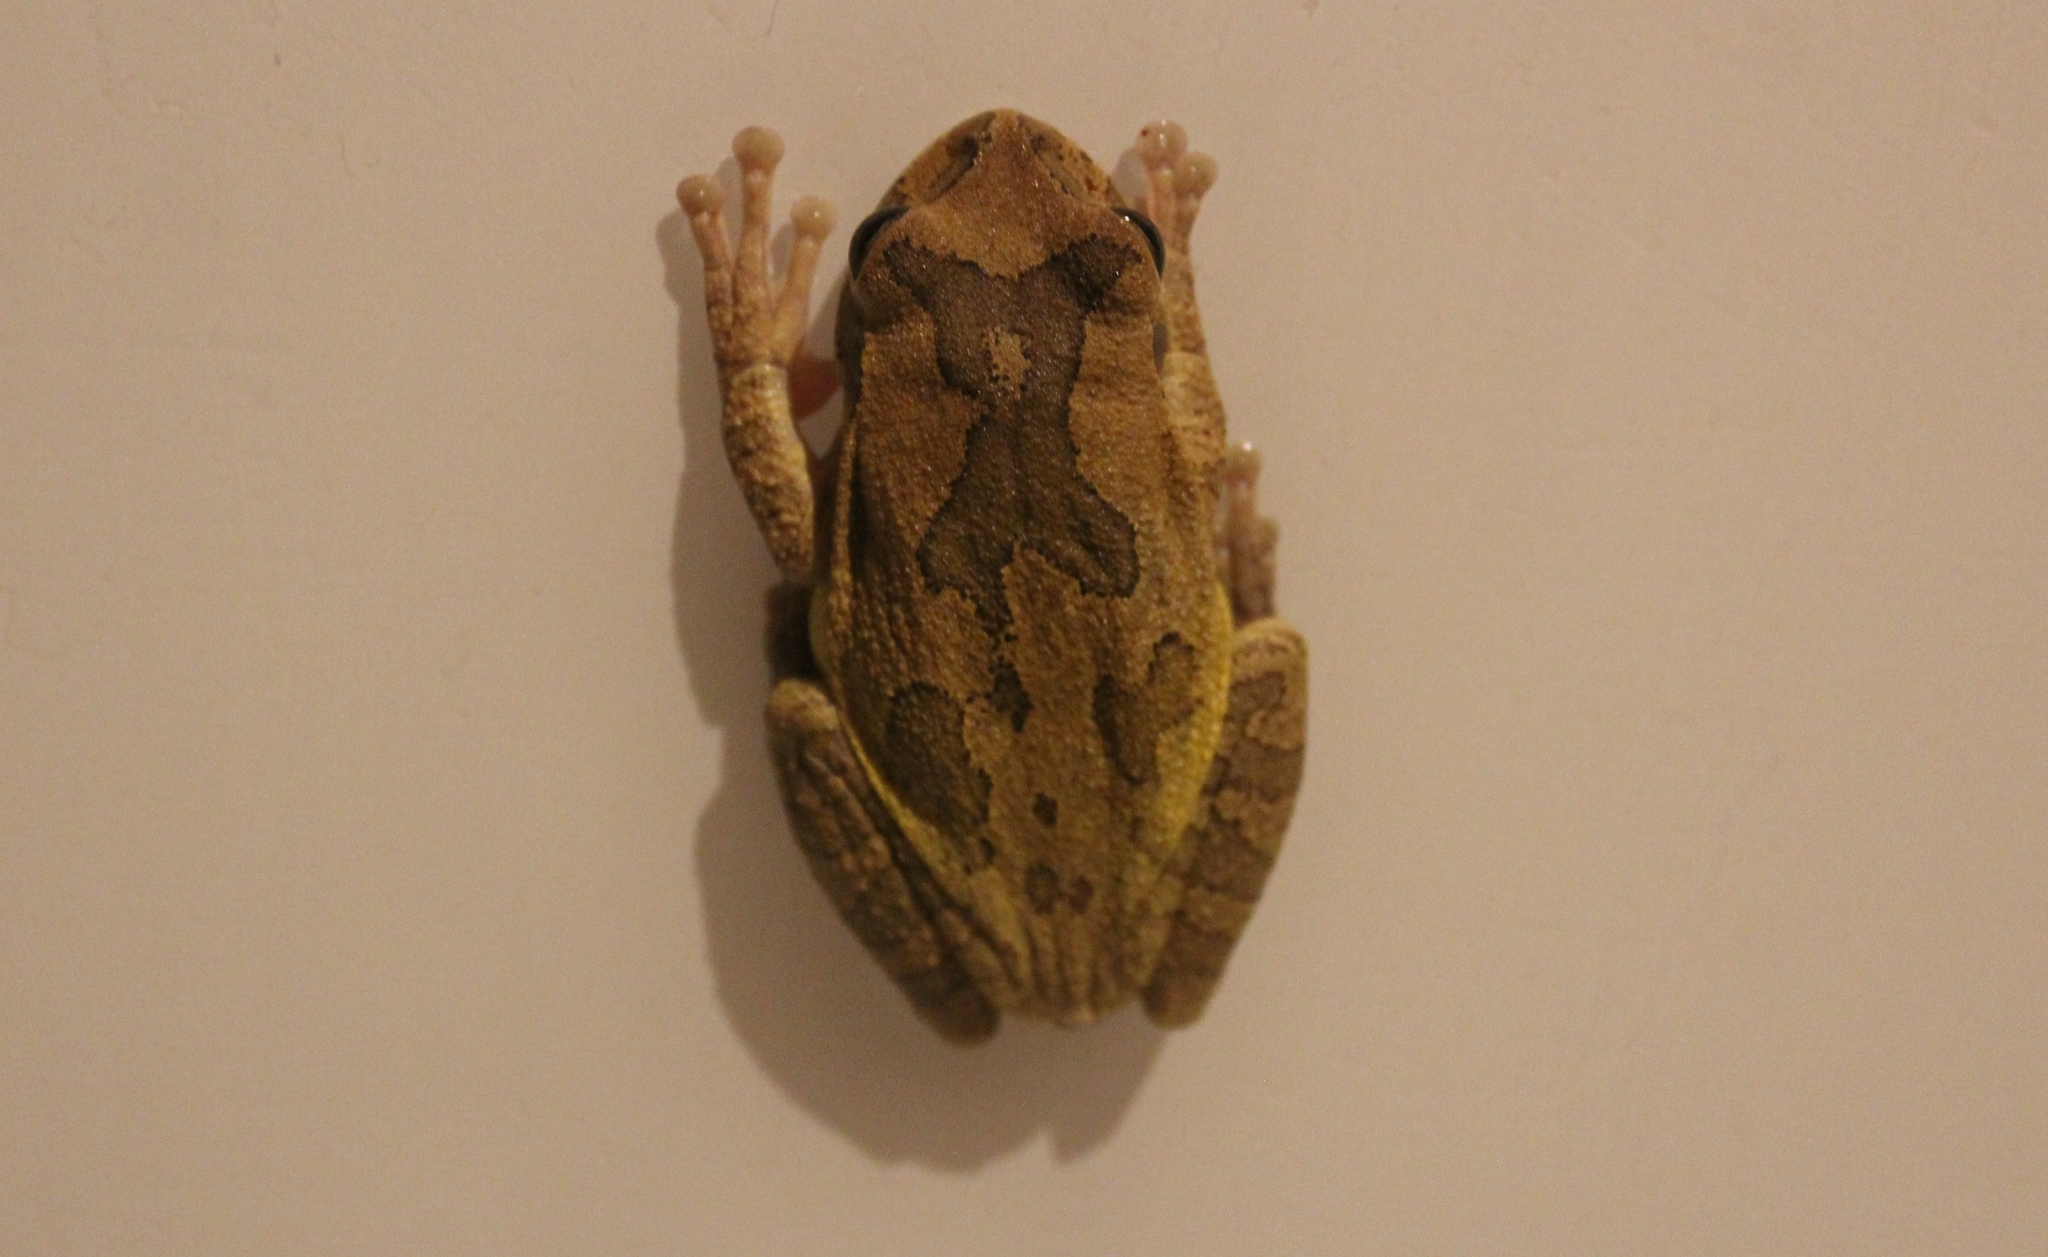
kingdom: Animalia
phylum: Chordata
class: Amphibia
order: Anura
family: Hylidae
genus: Smilisca
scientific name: Smilisca baudinii
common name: Mexican smilisca
